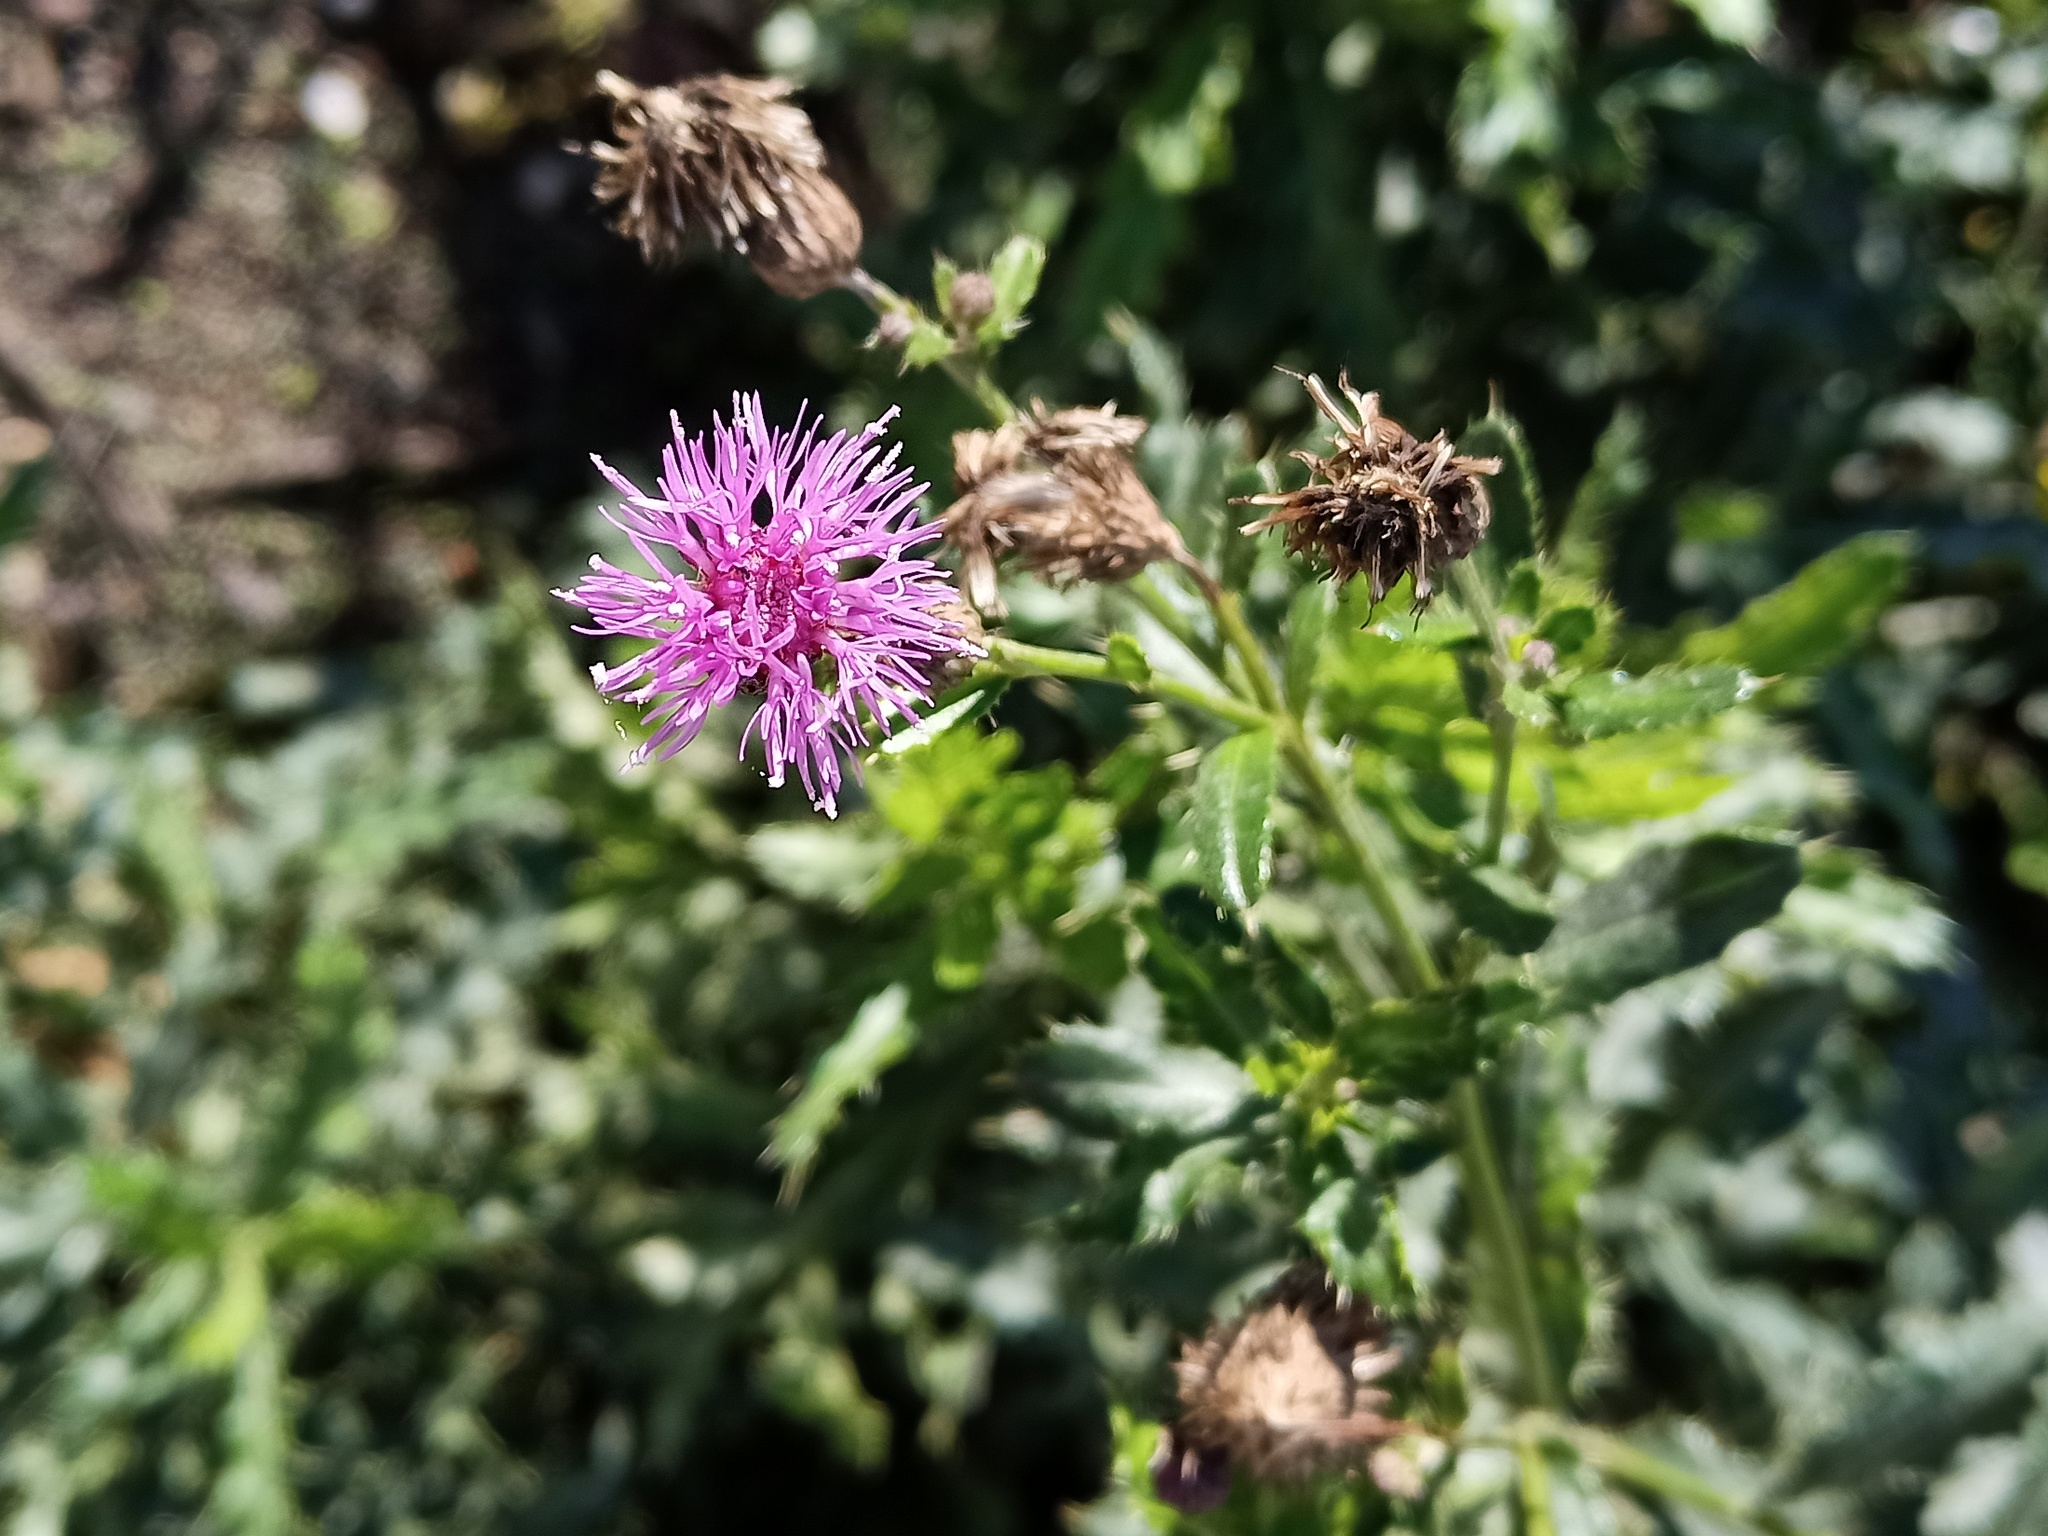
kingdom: Plantae
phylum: Tracheophyta
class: Magnoliopsida
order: Asterales
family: Asteraceae
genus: Cirsium
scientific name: Cirsium arvense
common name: Creeping thistle
